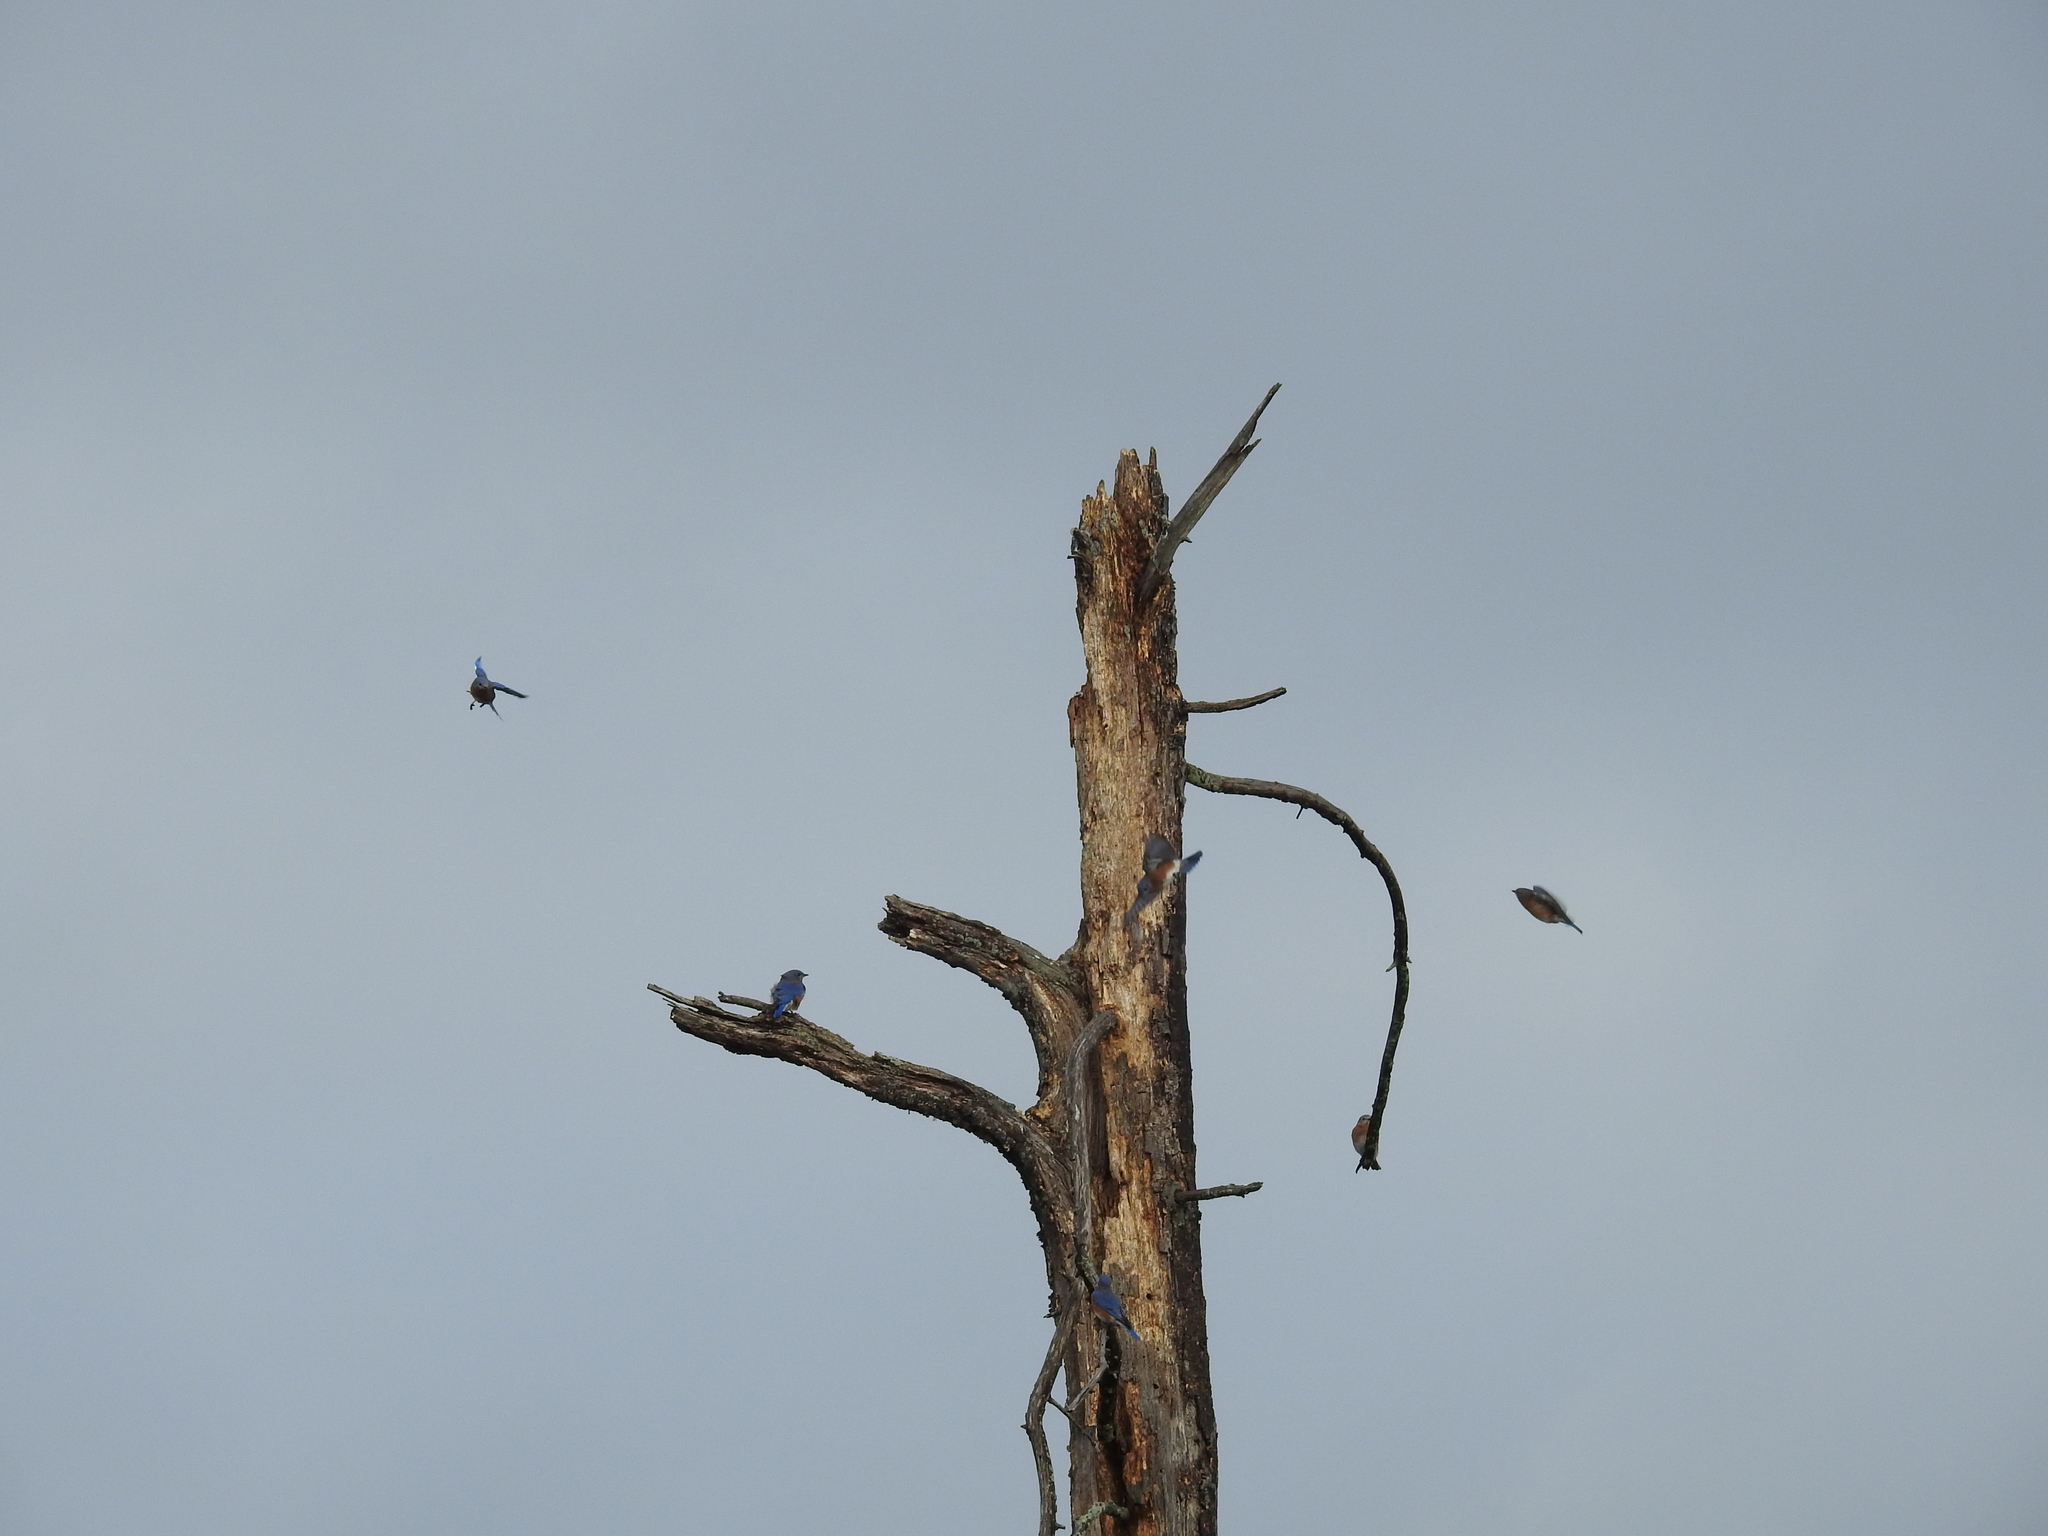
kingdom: Animalia
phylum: Chordata
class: Aves
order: Passeriformes
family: Turdidae
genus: Sialia
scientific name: Sialia sialis
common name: Eastern bluebird
